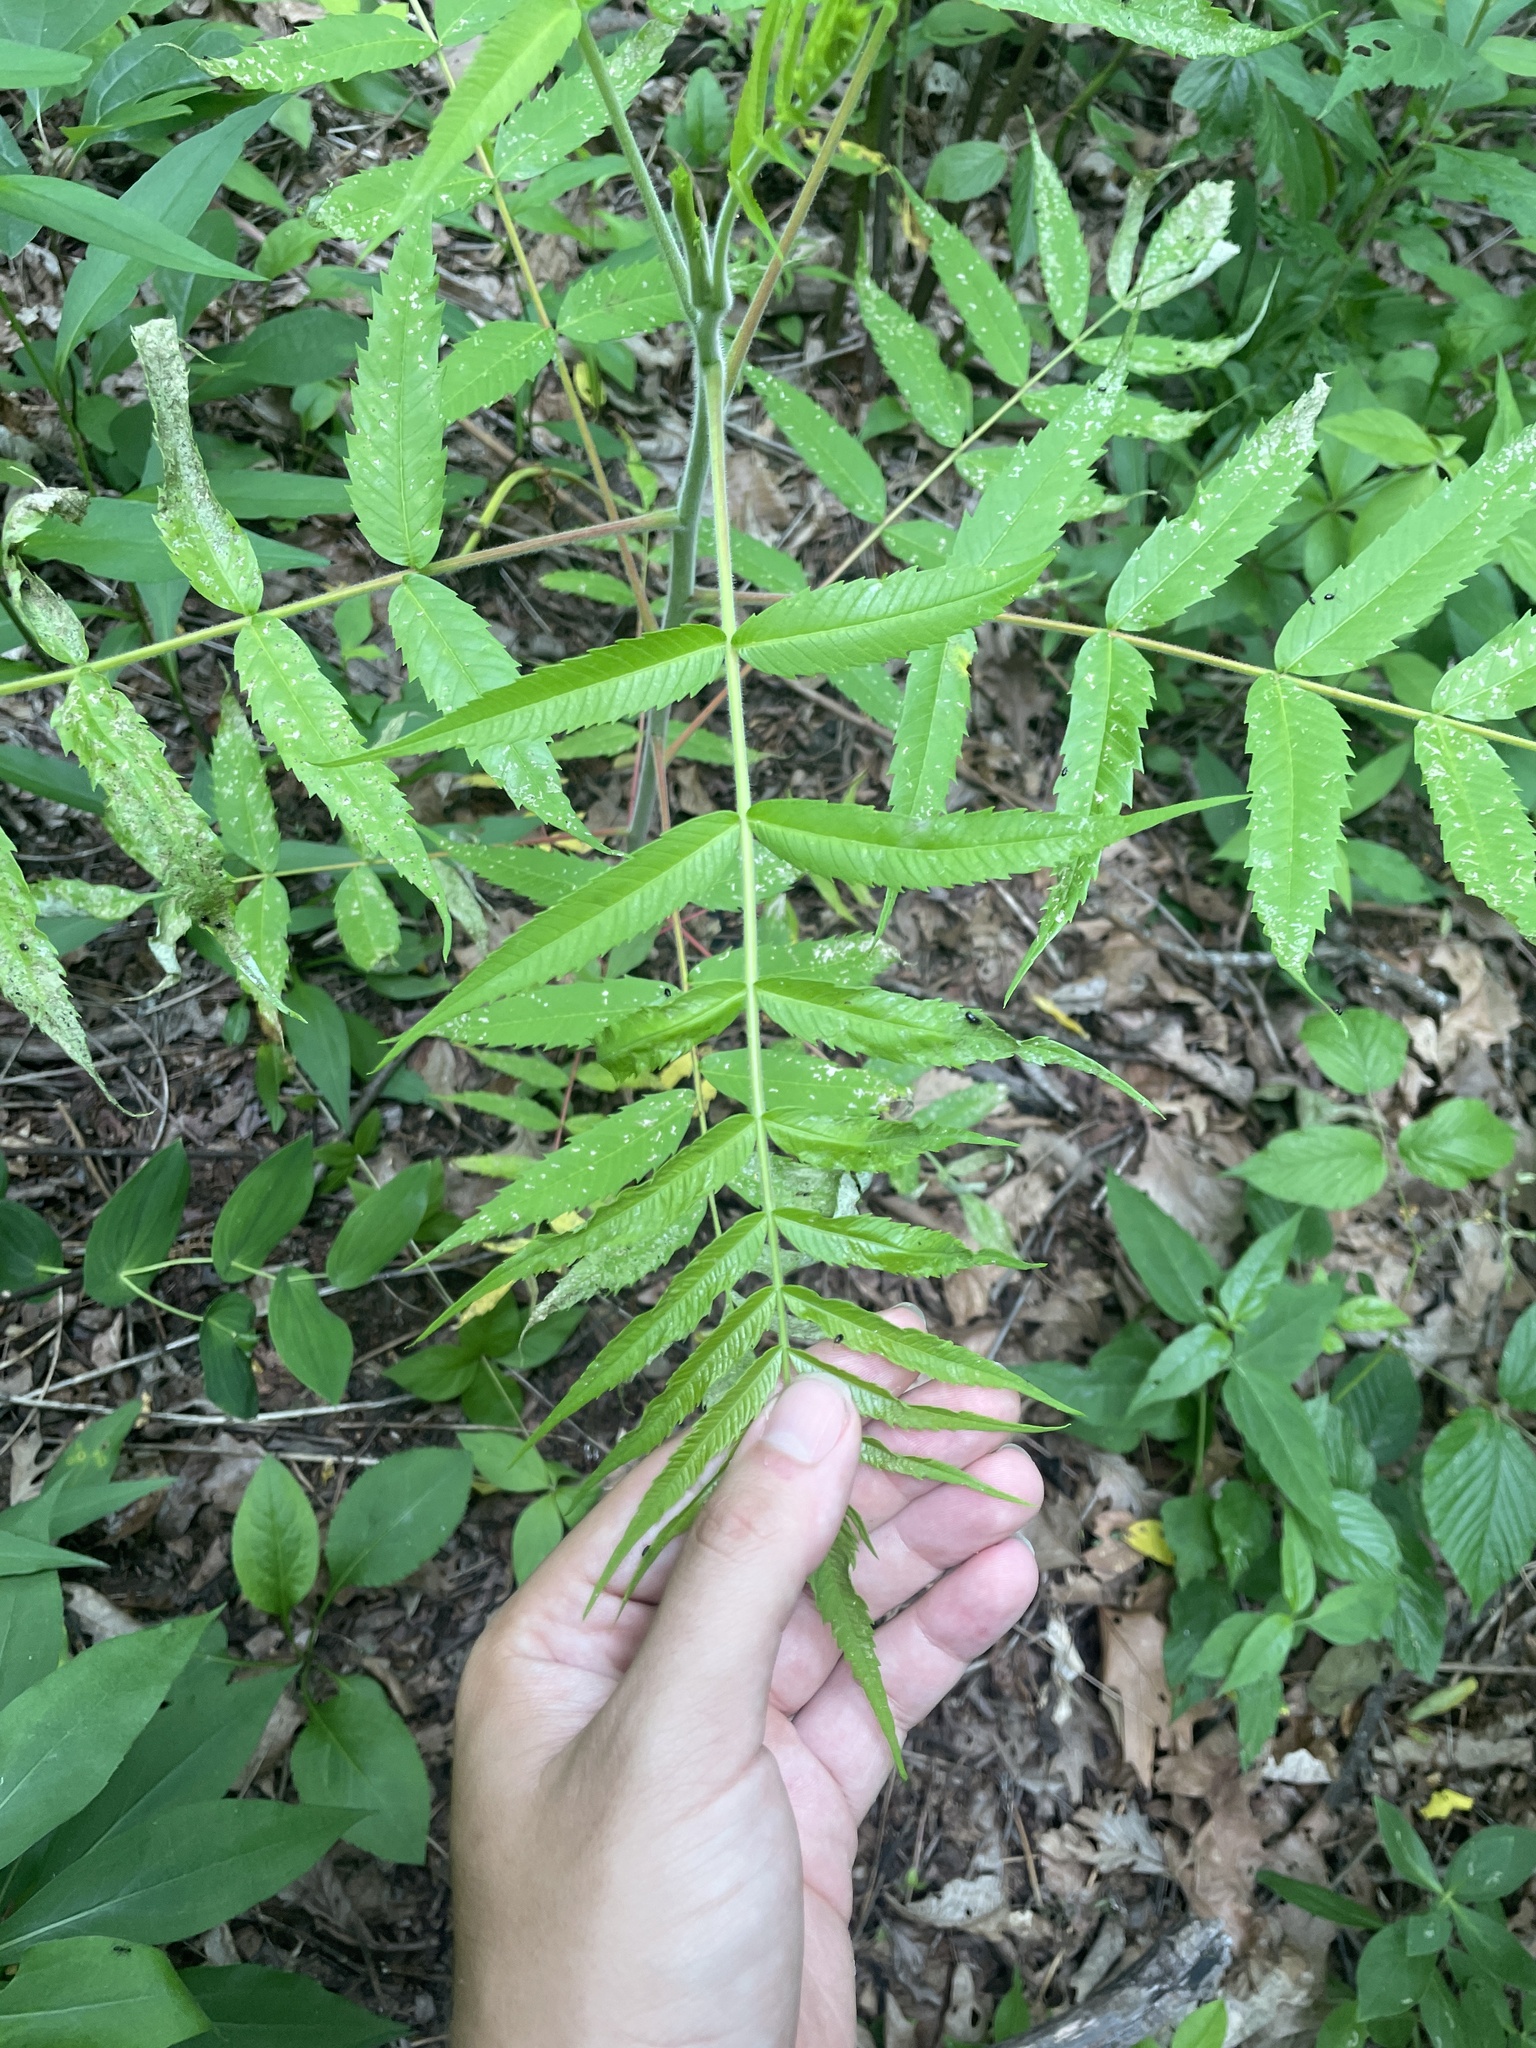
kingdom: Plantae
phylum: Tracheophyta
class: Magnoliopsida
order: Sapindales
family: Anacardiaceae
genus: Rhus
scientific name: Rhus glabra
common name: Scarlet sumac
